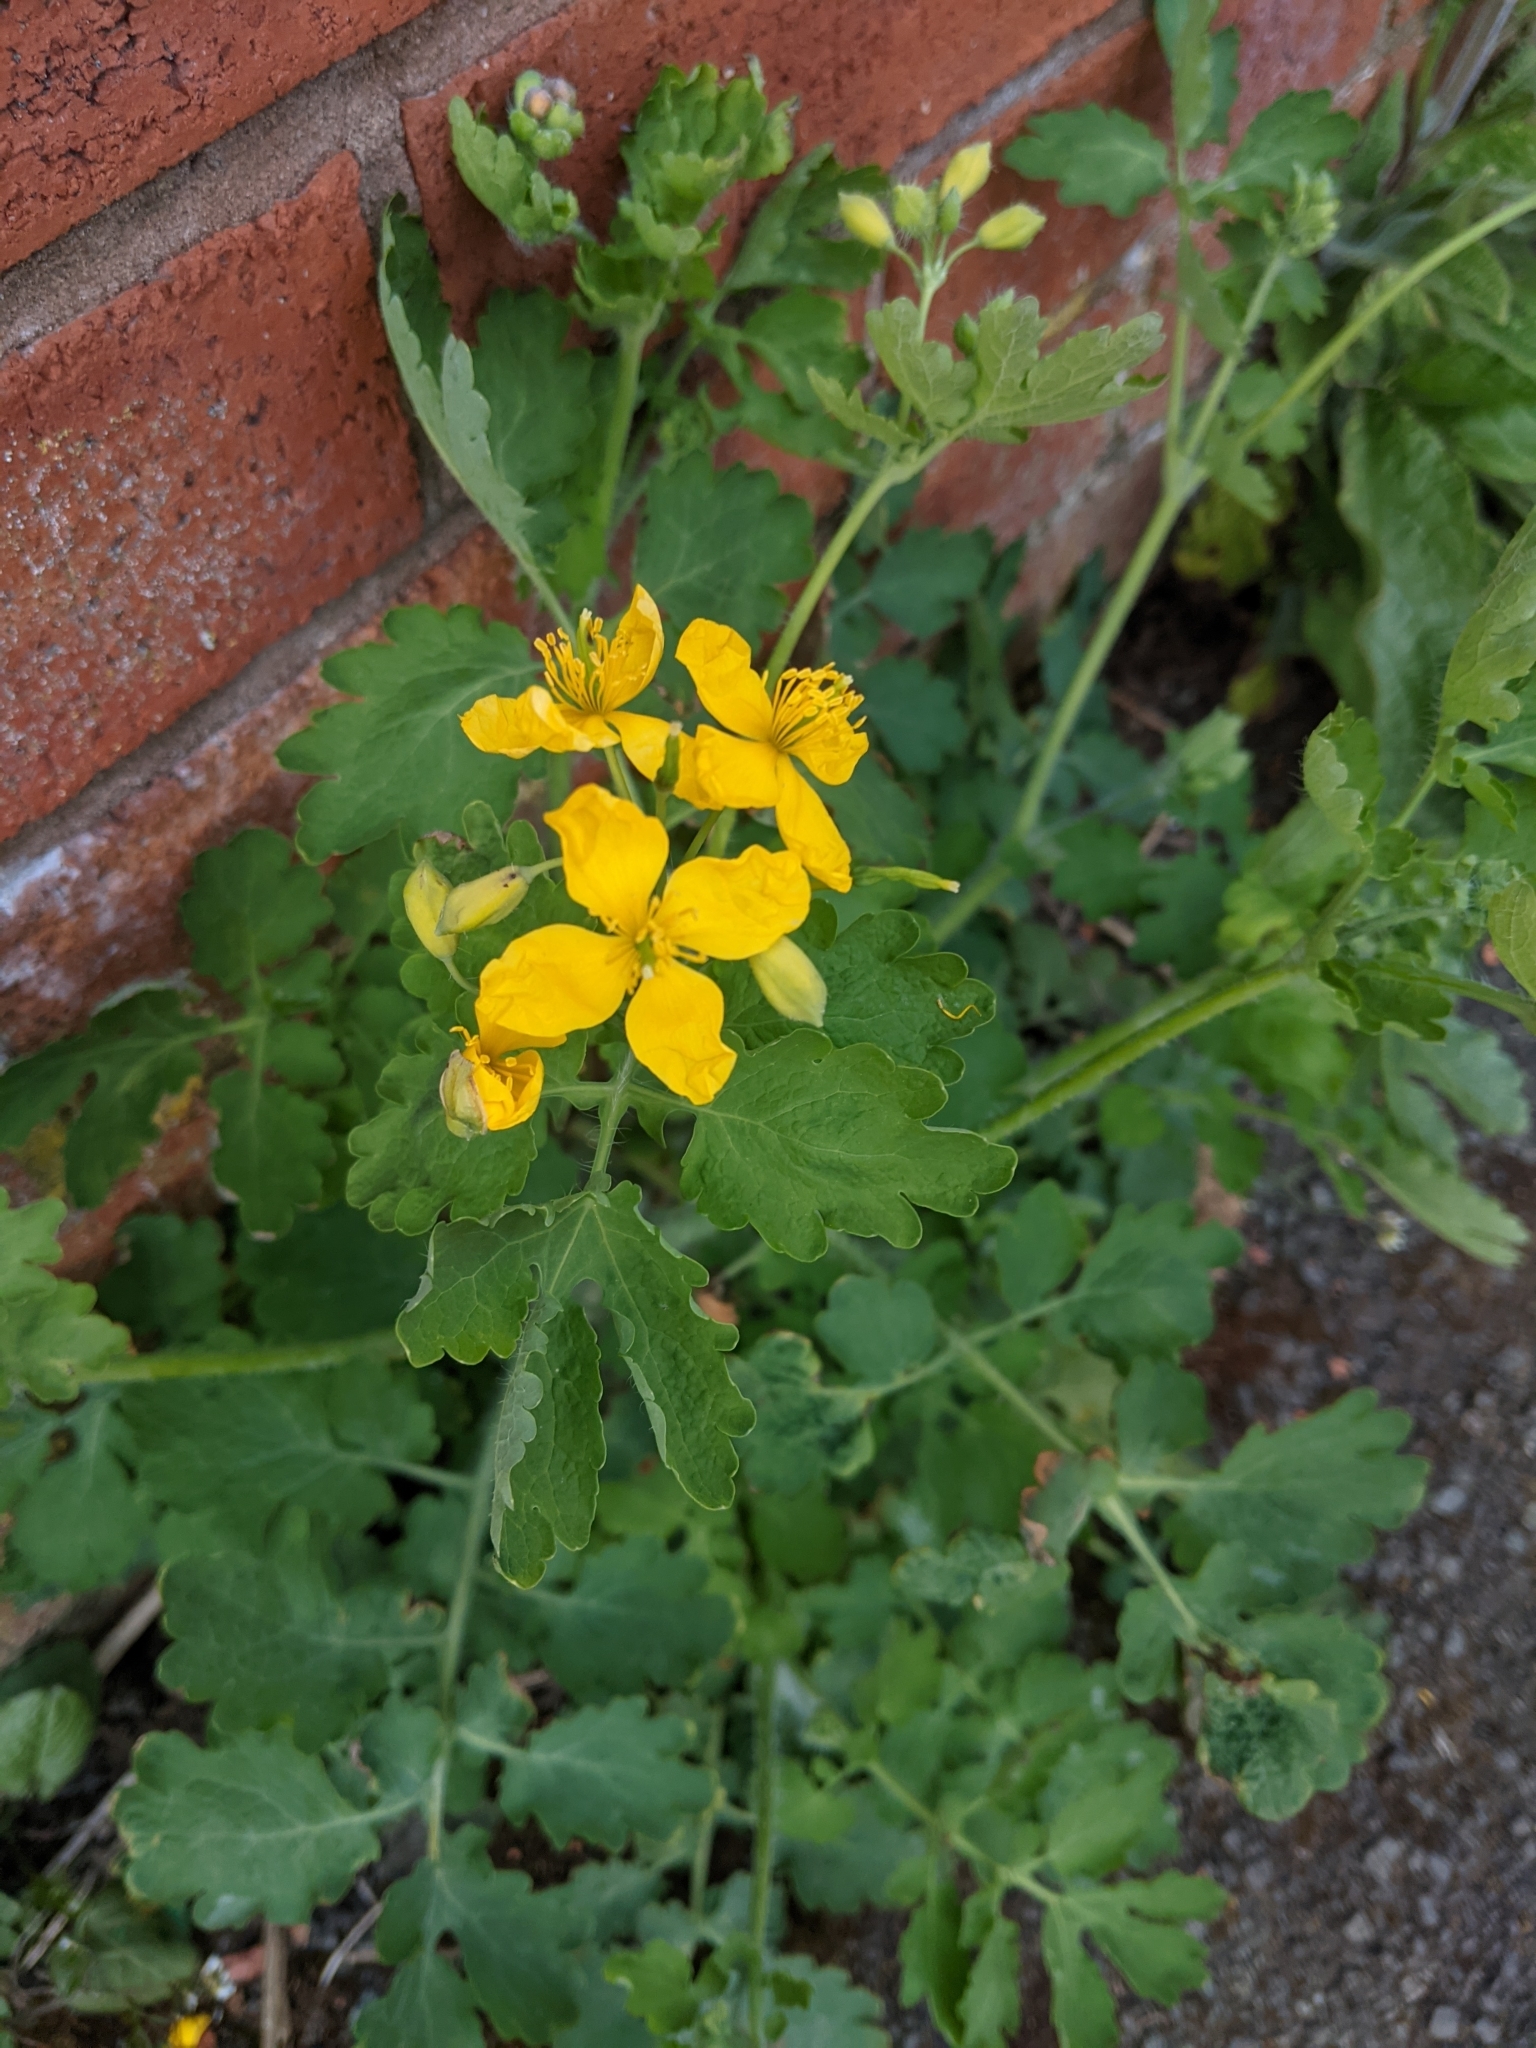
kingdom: Plantae
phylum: Tracheophyta
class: Magnoliopsida
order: Ranunculales
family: Papaveraceae
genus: Chelidonium
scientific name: Chelidonium majus
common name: Greater celandine
